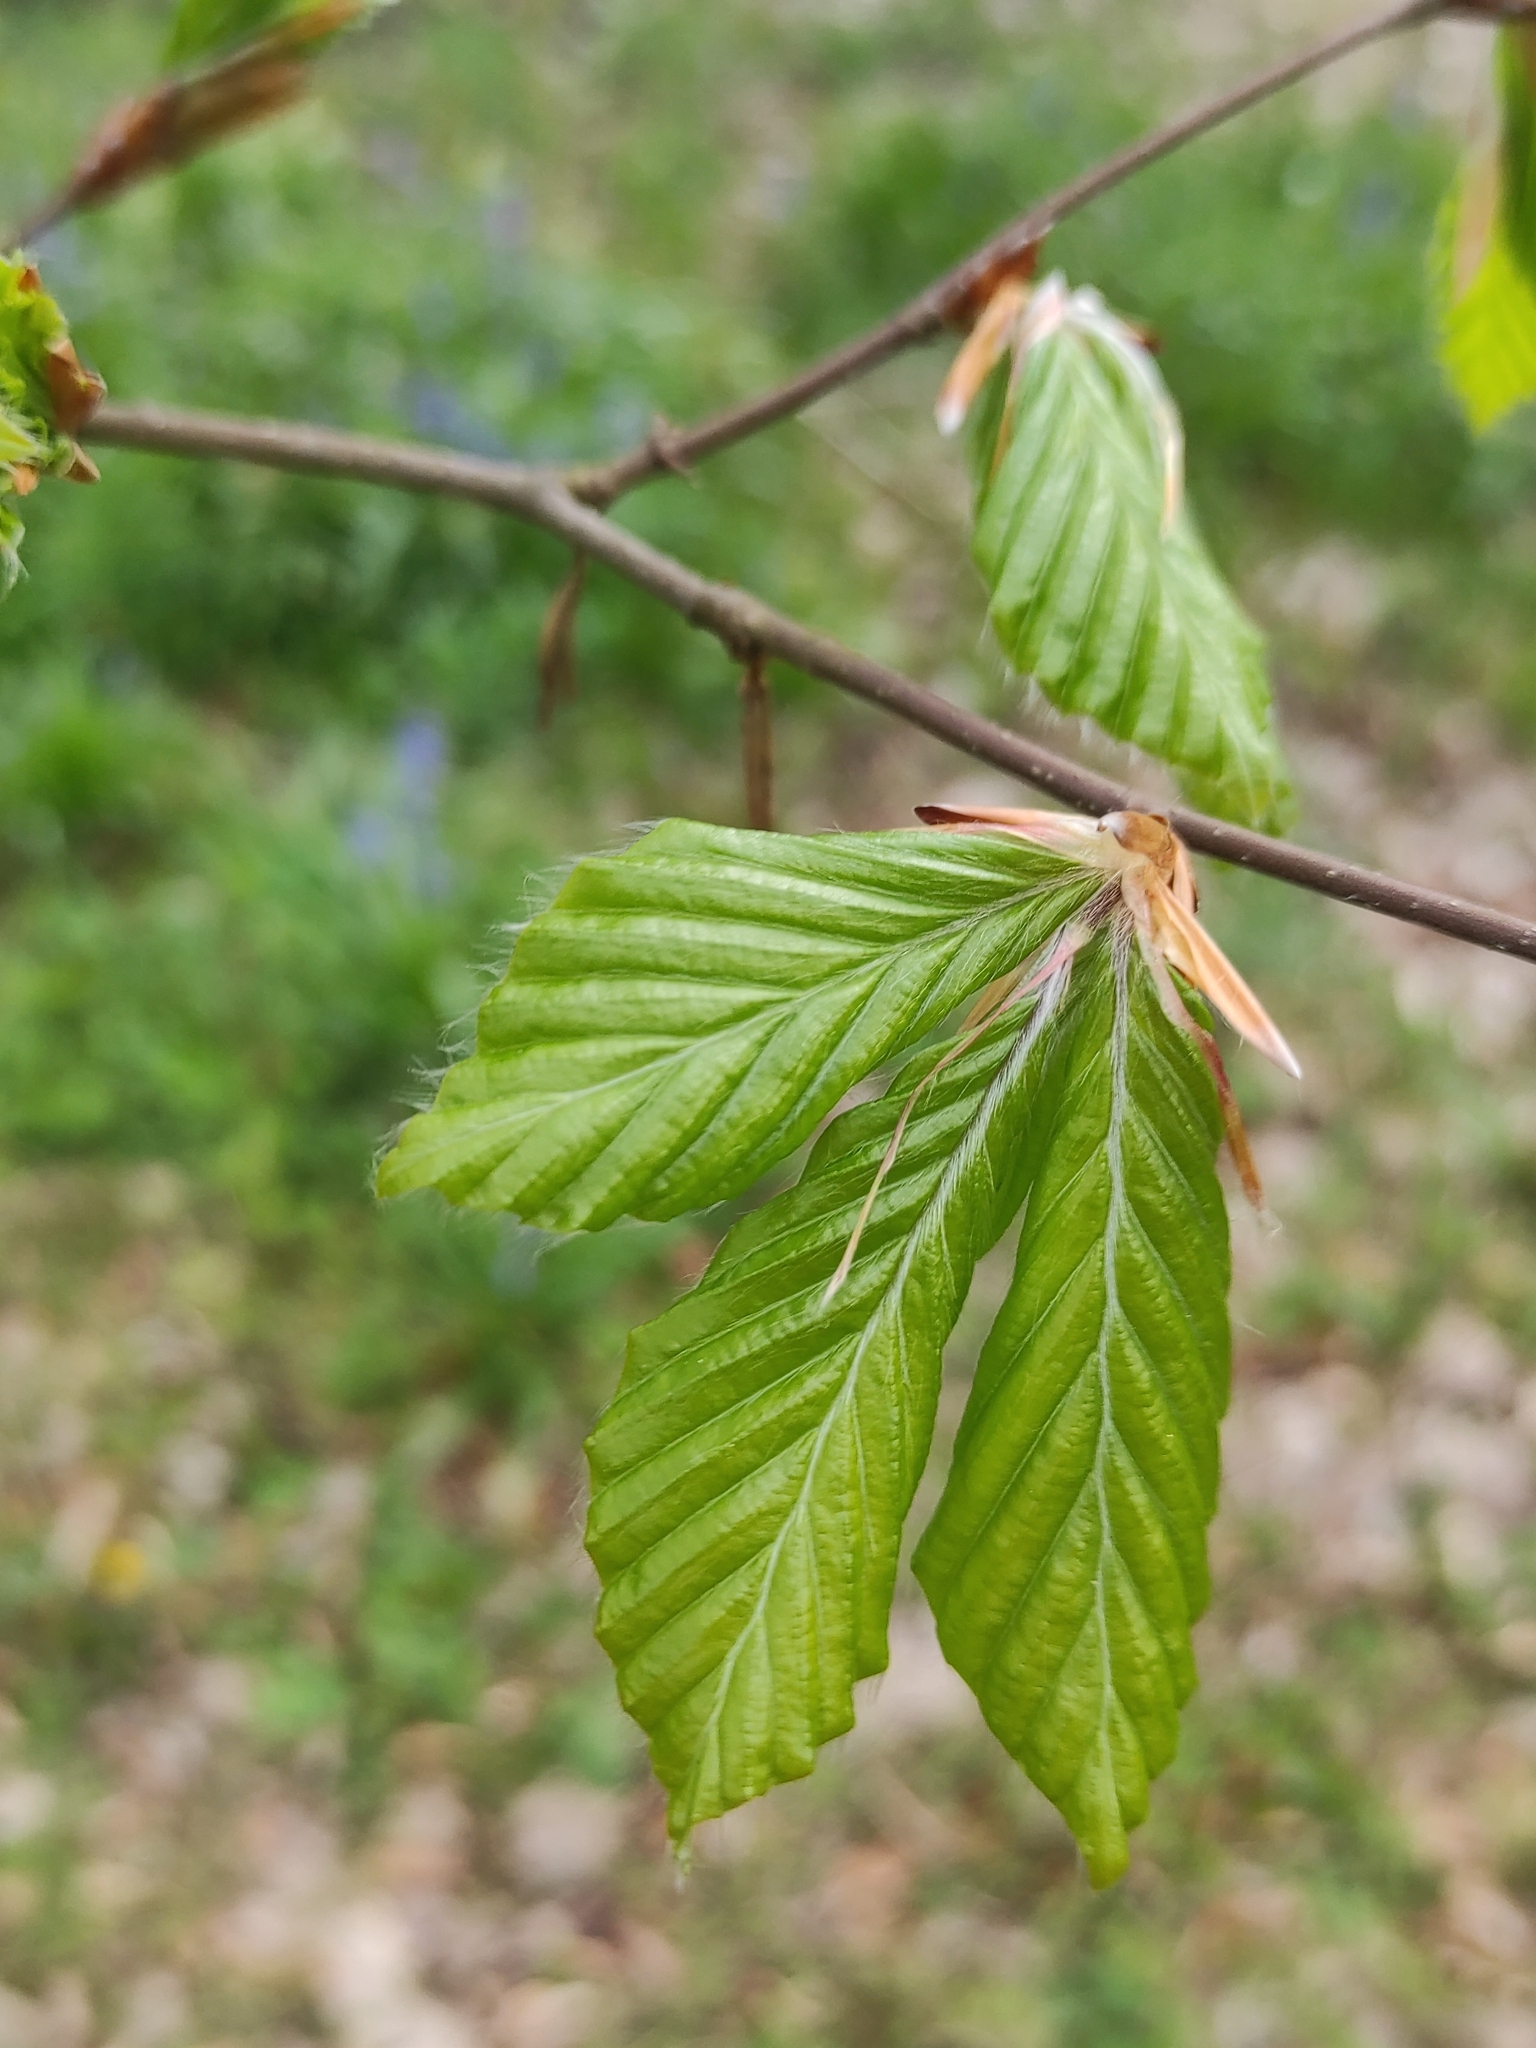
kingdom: Plantae
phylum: Tracheophyta
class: Magnoliopsida
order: Fagales
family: Fagaceae
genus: Fagus
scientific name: Fagus sylvatica
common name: Beech
